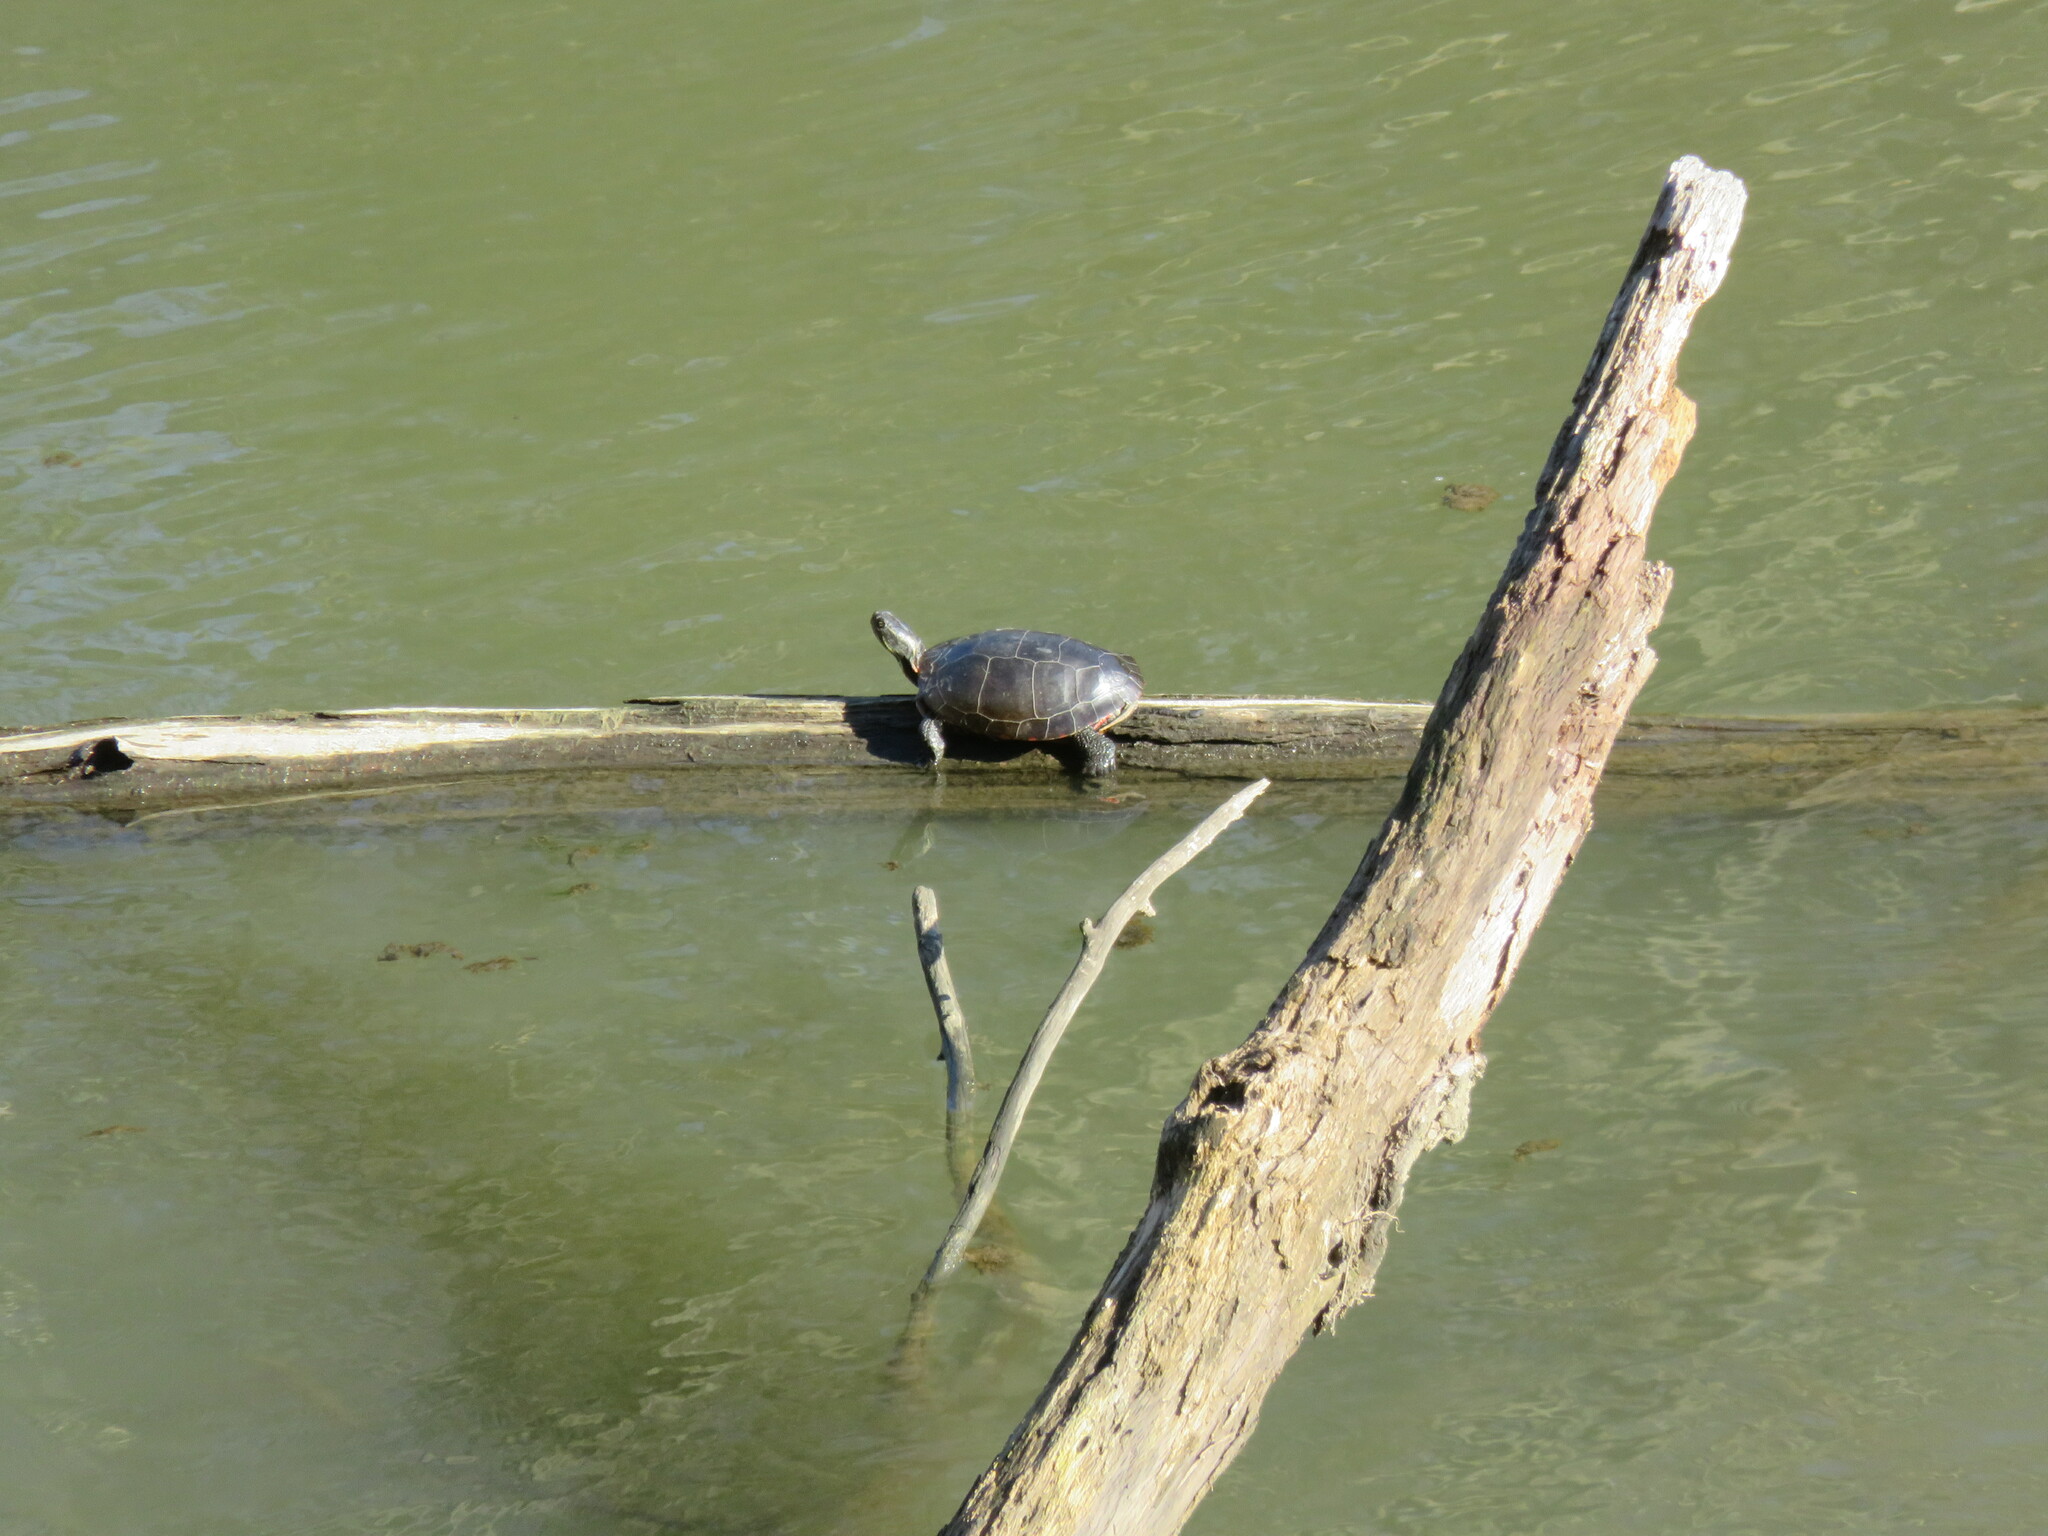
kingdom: Animalia
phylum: Chordata
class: Testudines
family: Emydidae
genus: Chrysemys
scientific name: Chrysemys picta
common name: Painted turtle
